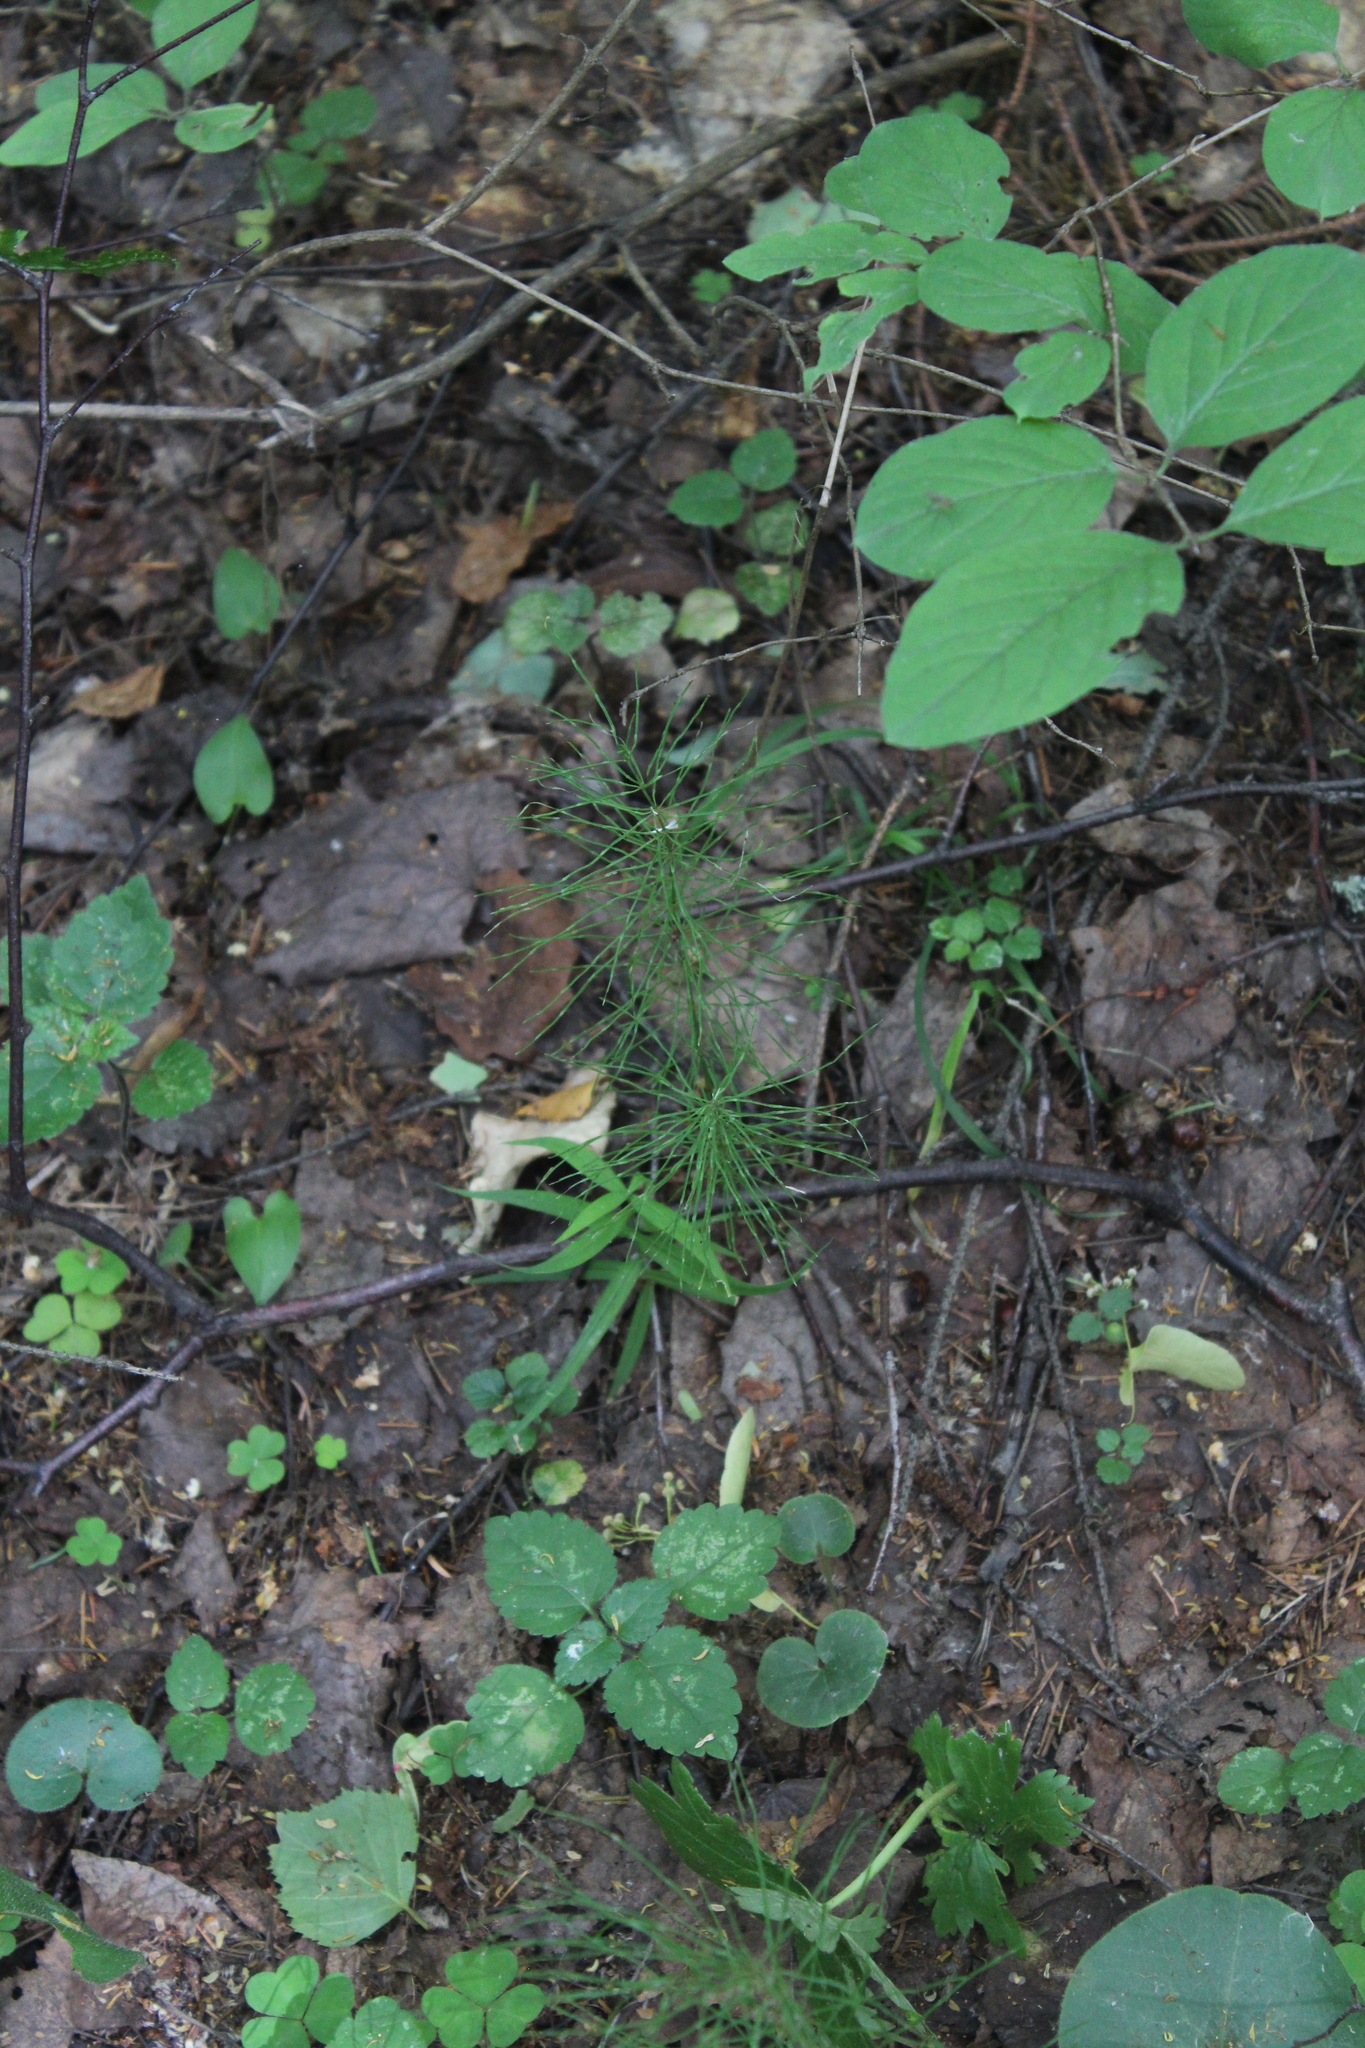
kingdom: Plantae
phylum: Tracheophyta
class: Polypodiopsida
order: Equisetales
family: Equisetaceae
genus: Equisetum
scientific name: Equisetum pratense
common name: Meadow horsetail
